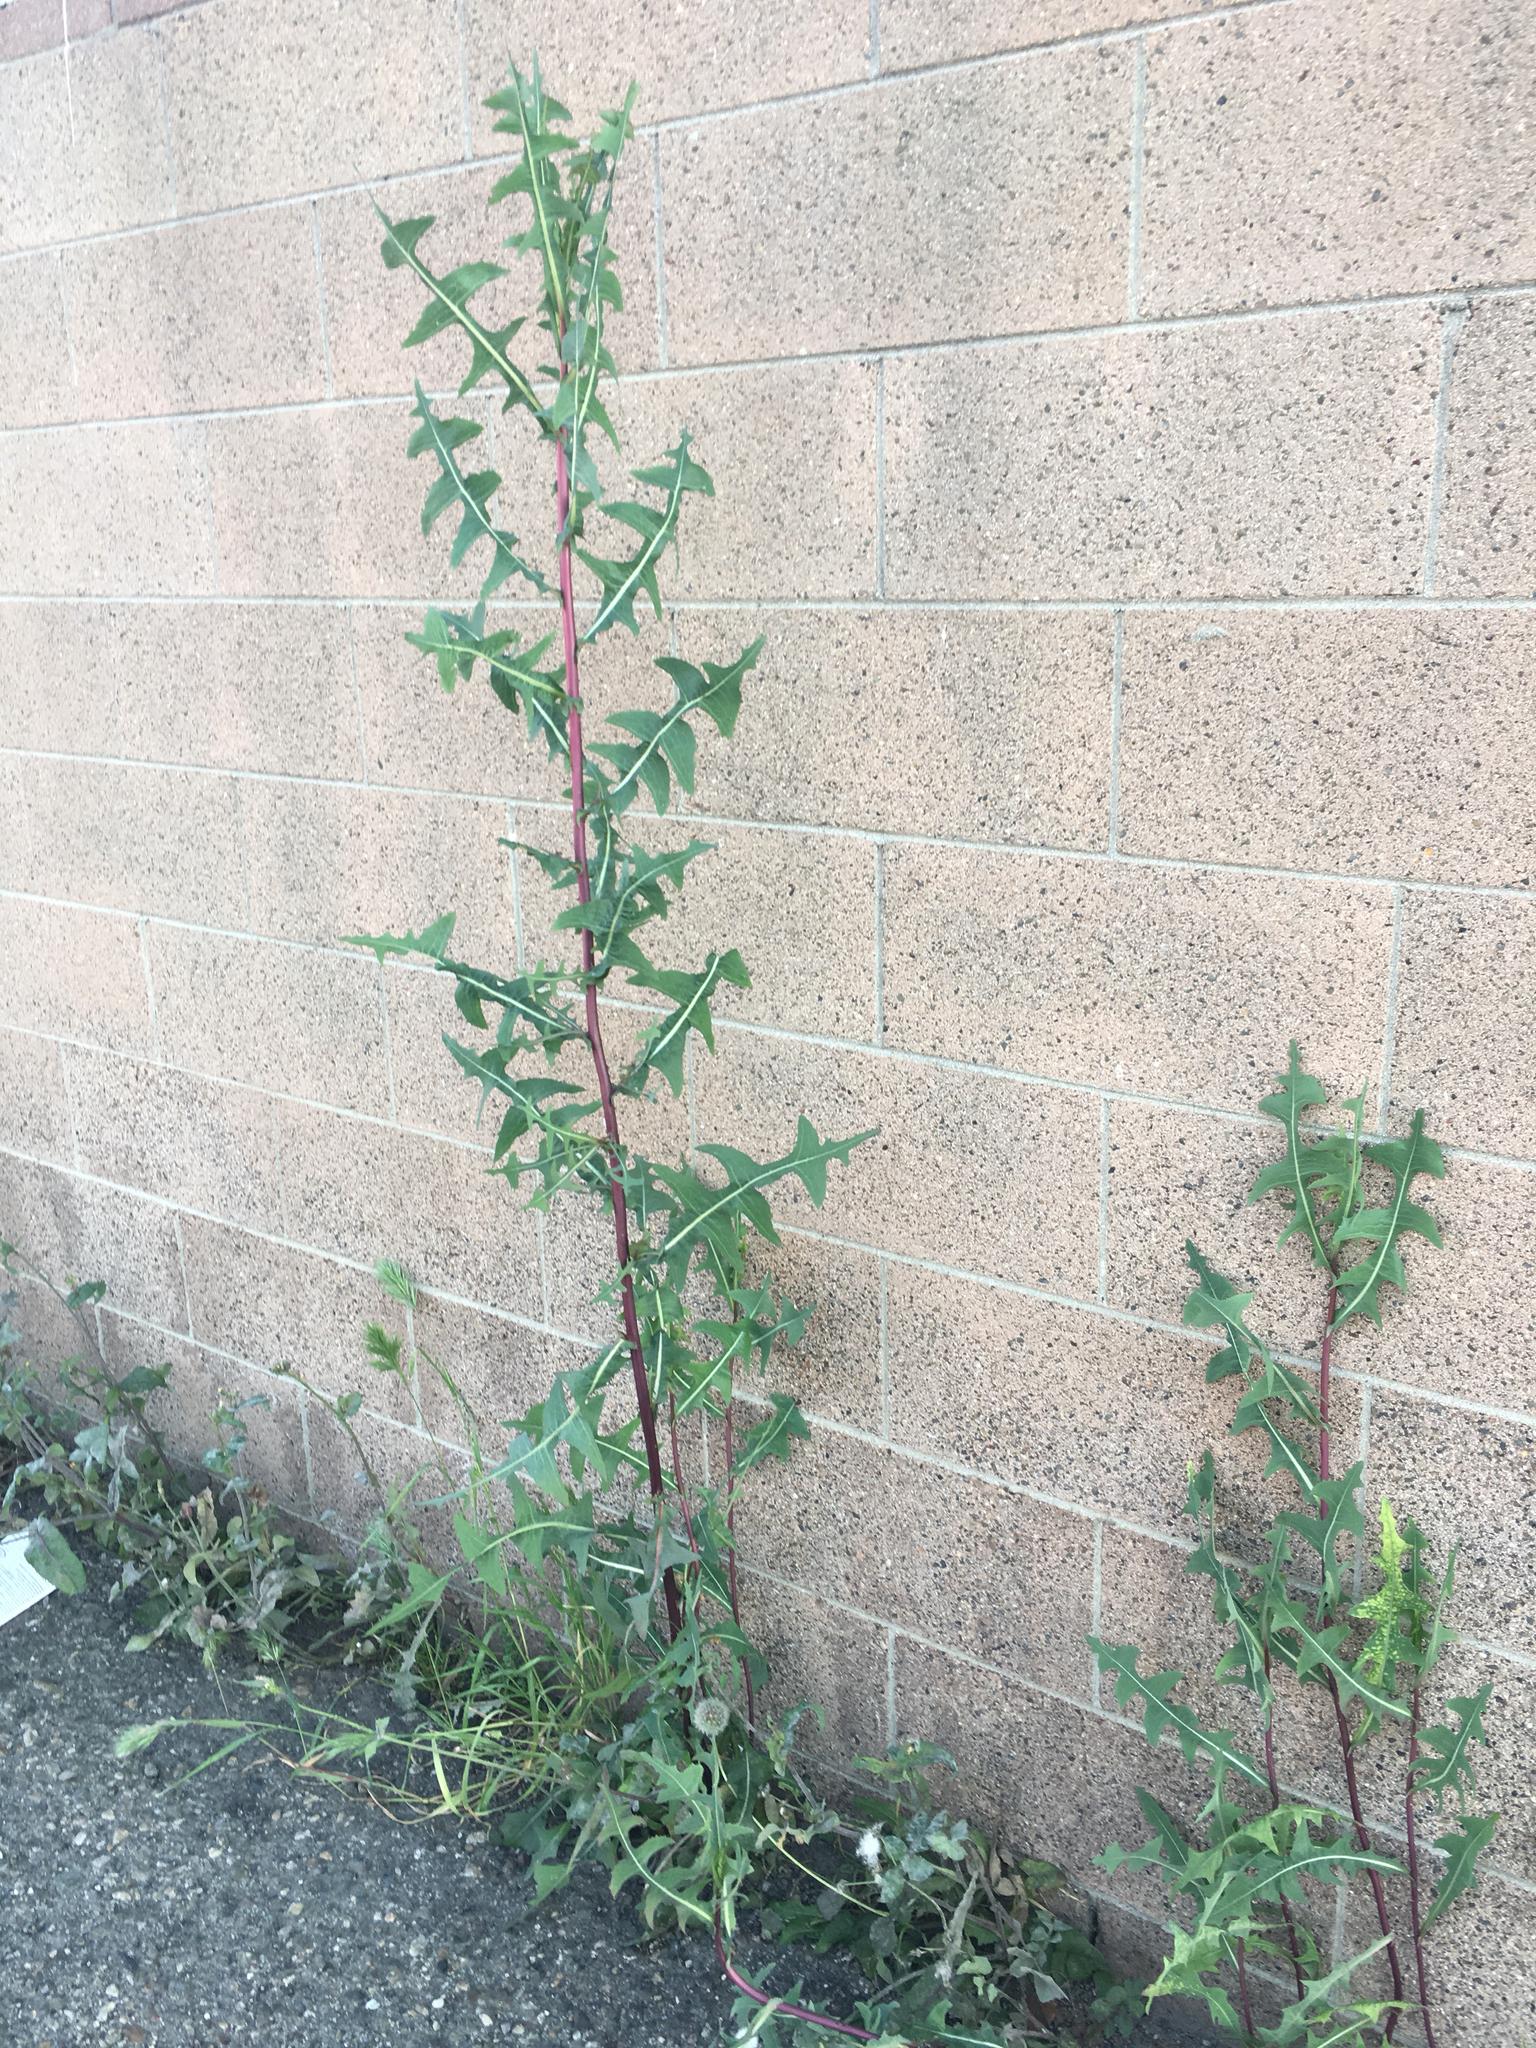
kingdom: Plantae
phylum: Tracheophyta
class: Magnoliopsida
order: Asterales
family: Asteraceae
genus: Lactuca
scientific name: Lactuca serriola
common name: Prickly lettuce
